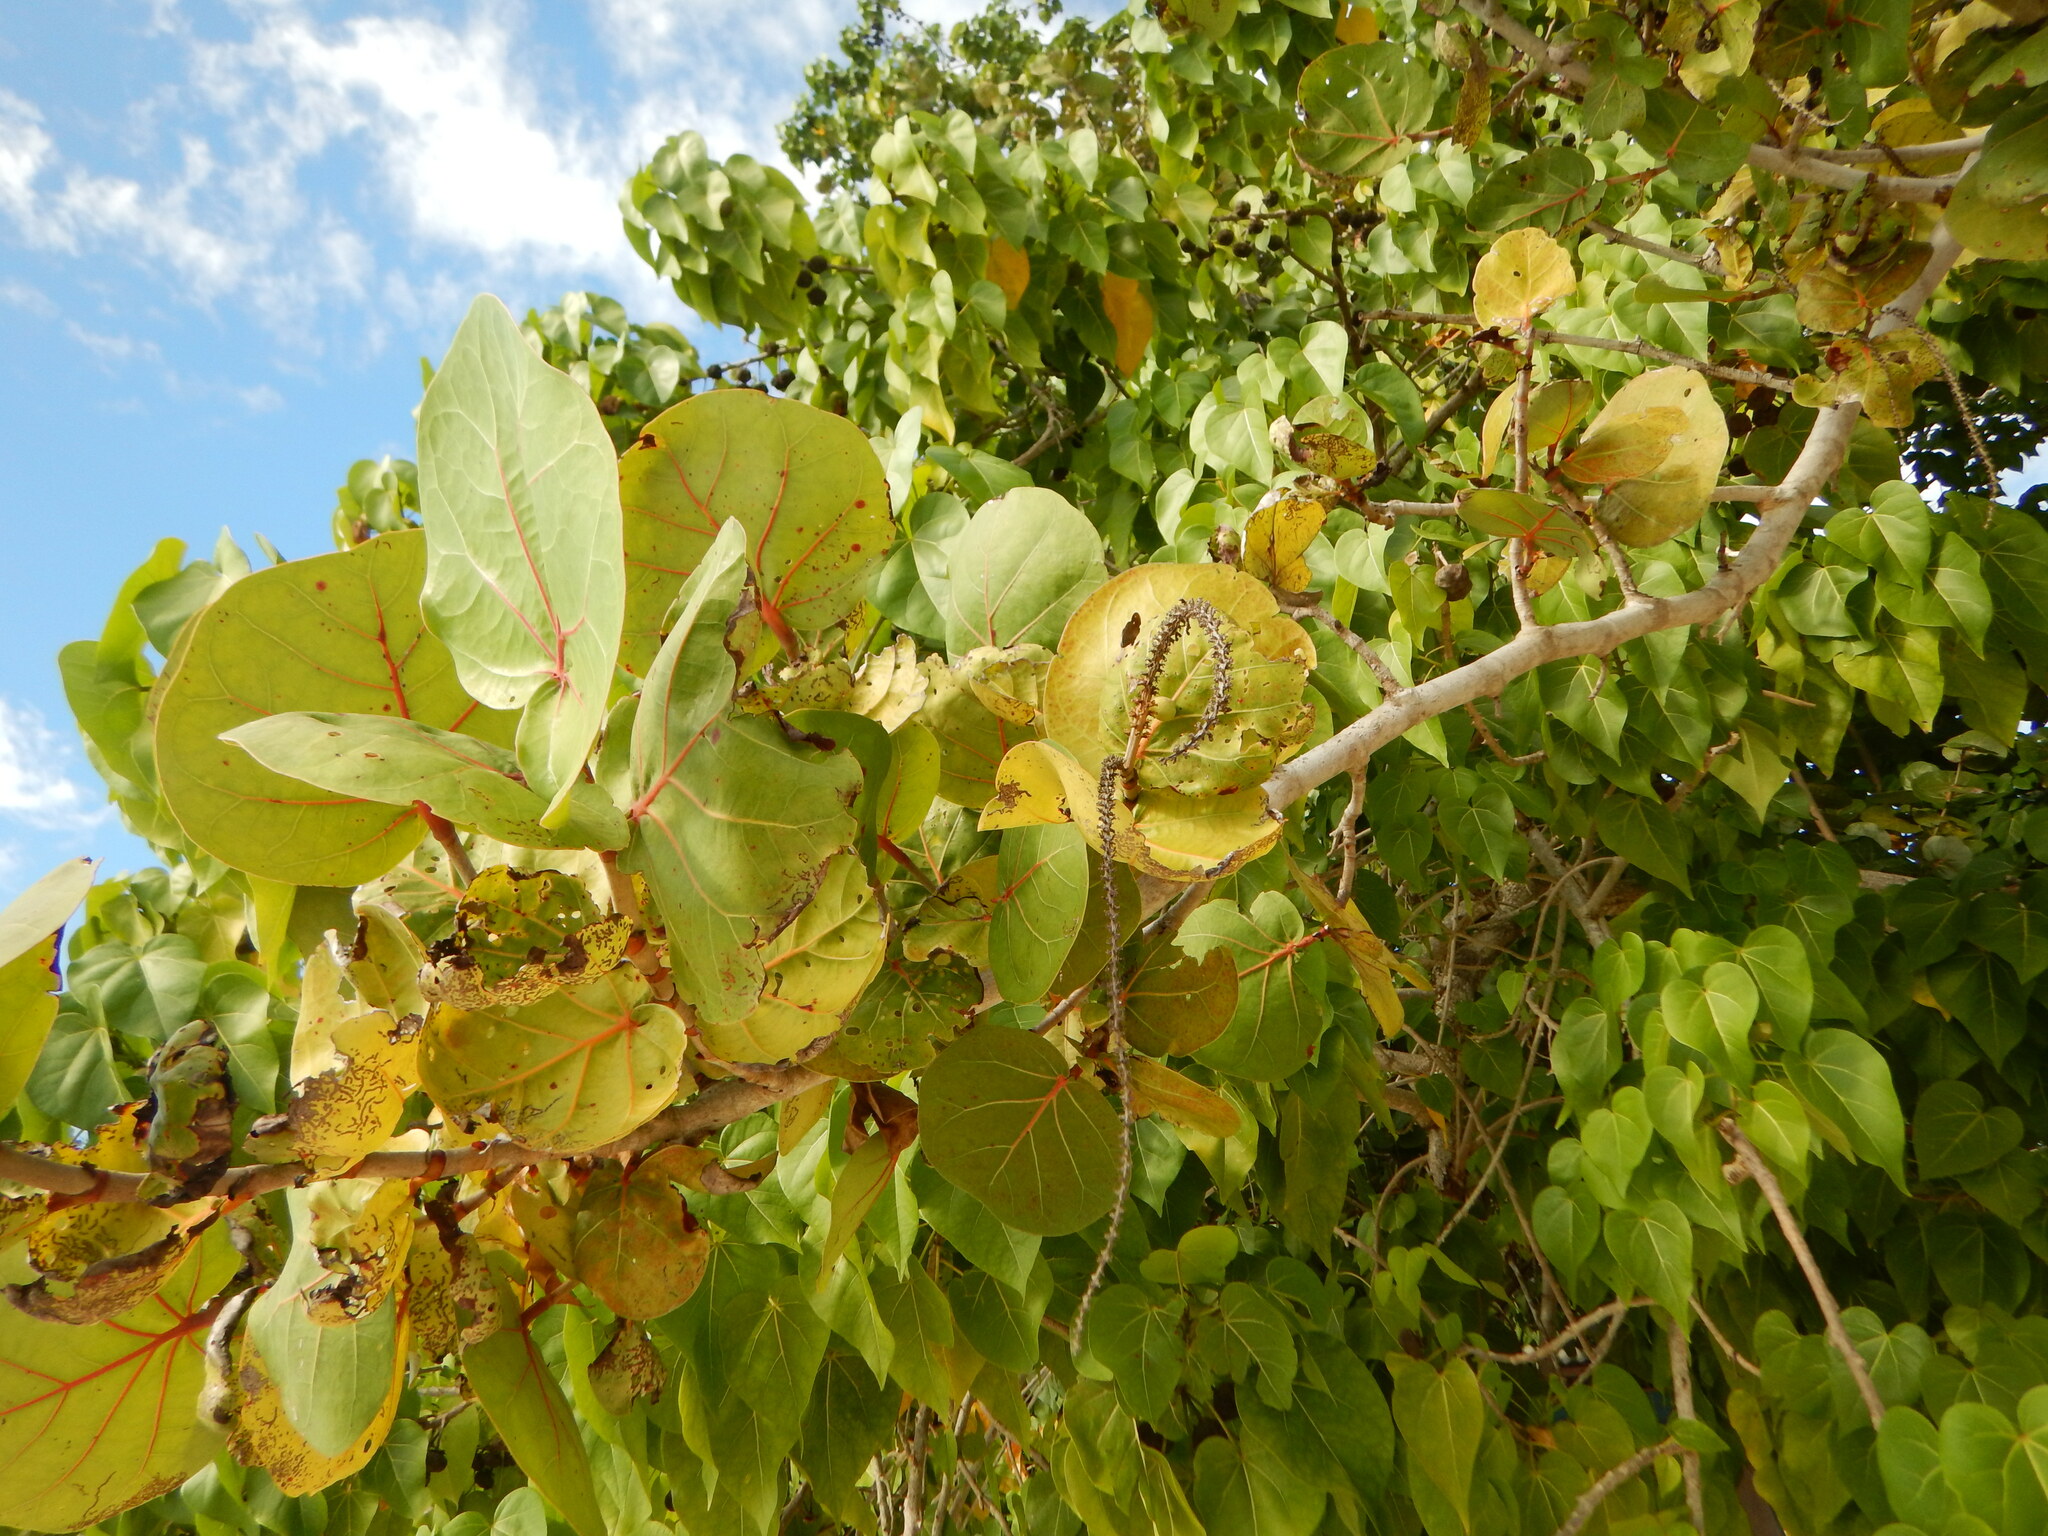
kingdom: Plantae
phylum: Tracheophyta
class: Magnoliopsida
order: Caryophyllales
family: Polygonaceae
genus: Coccoloba
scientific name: Coccoloba uvifera
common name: Seagrape
